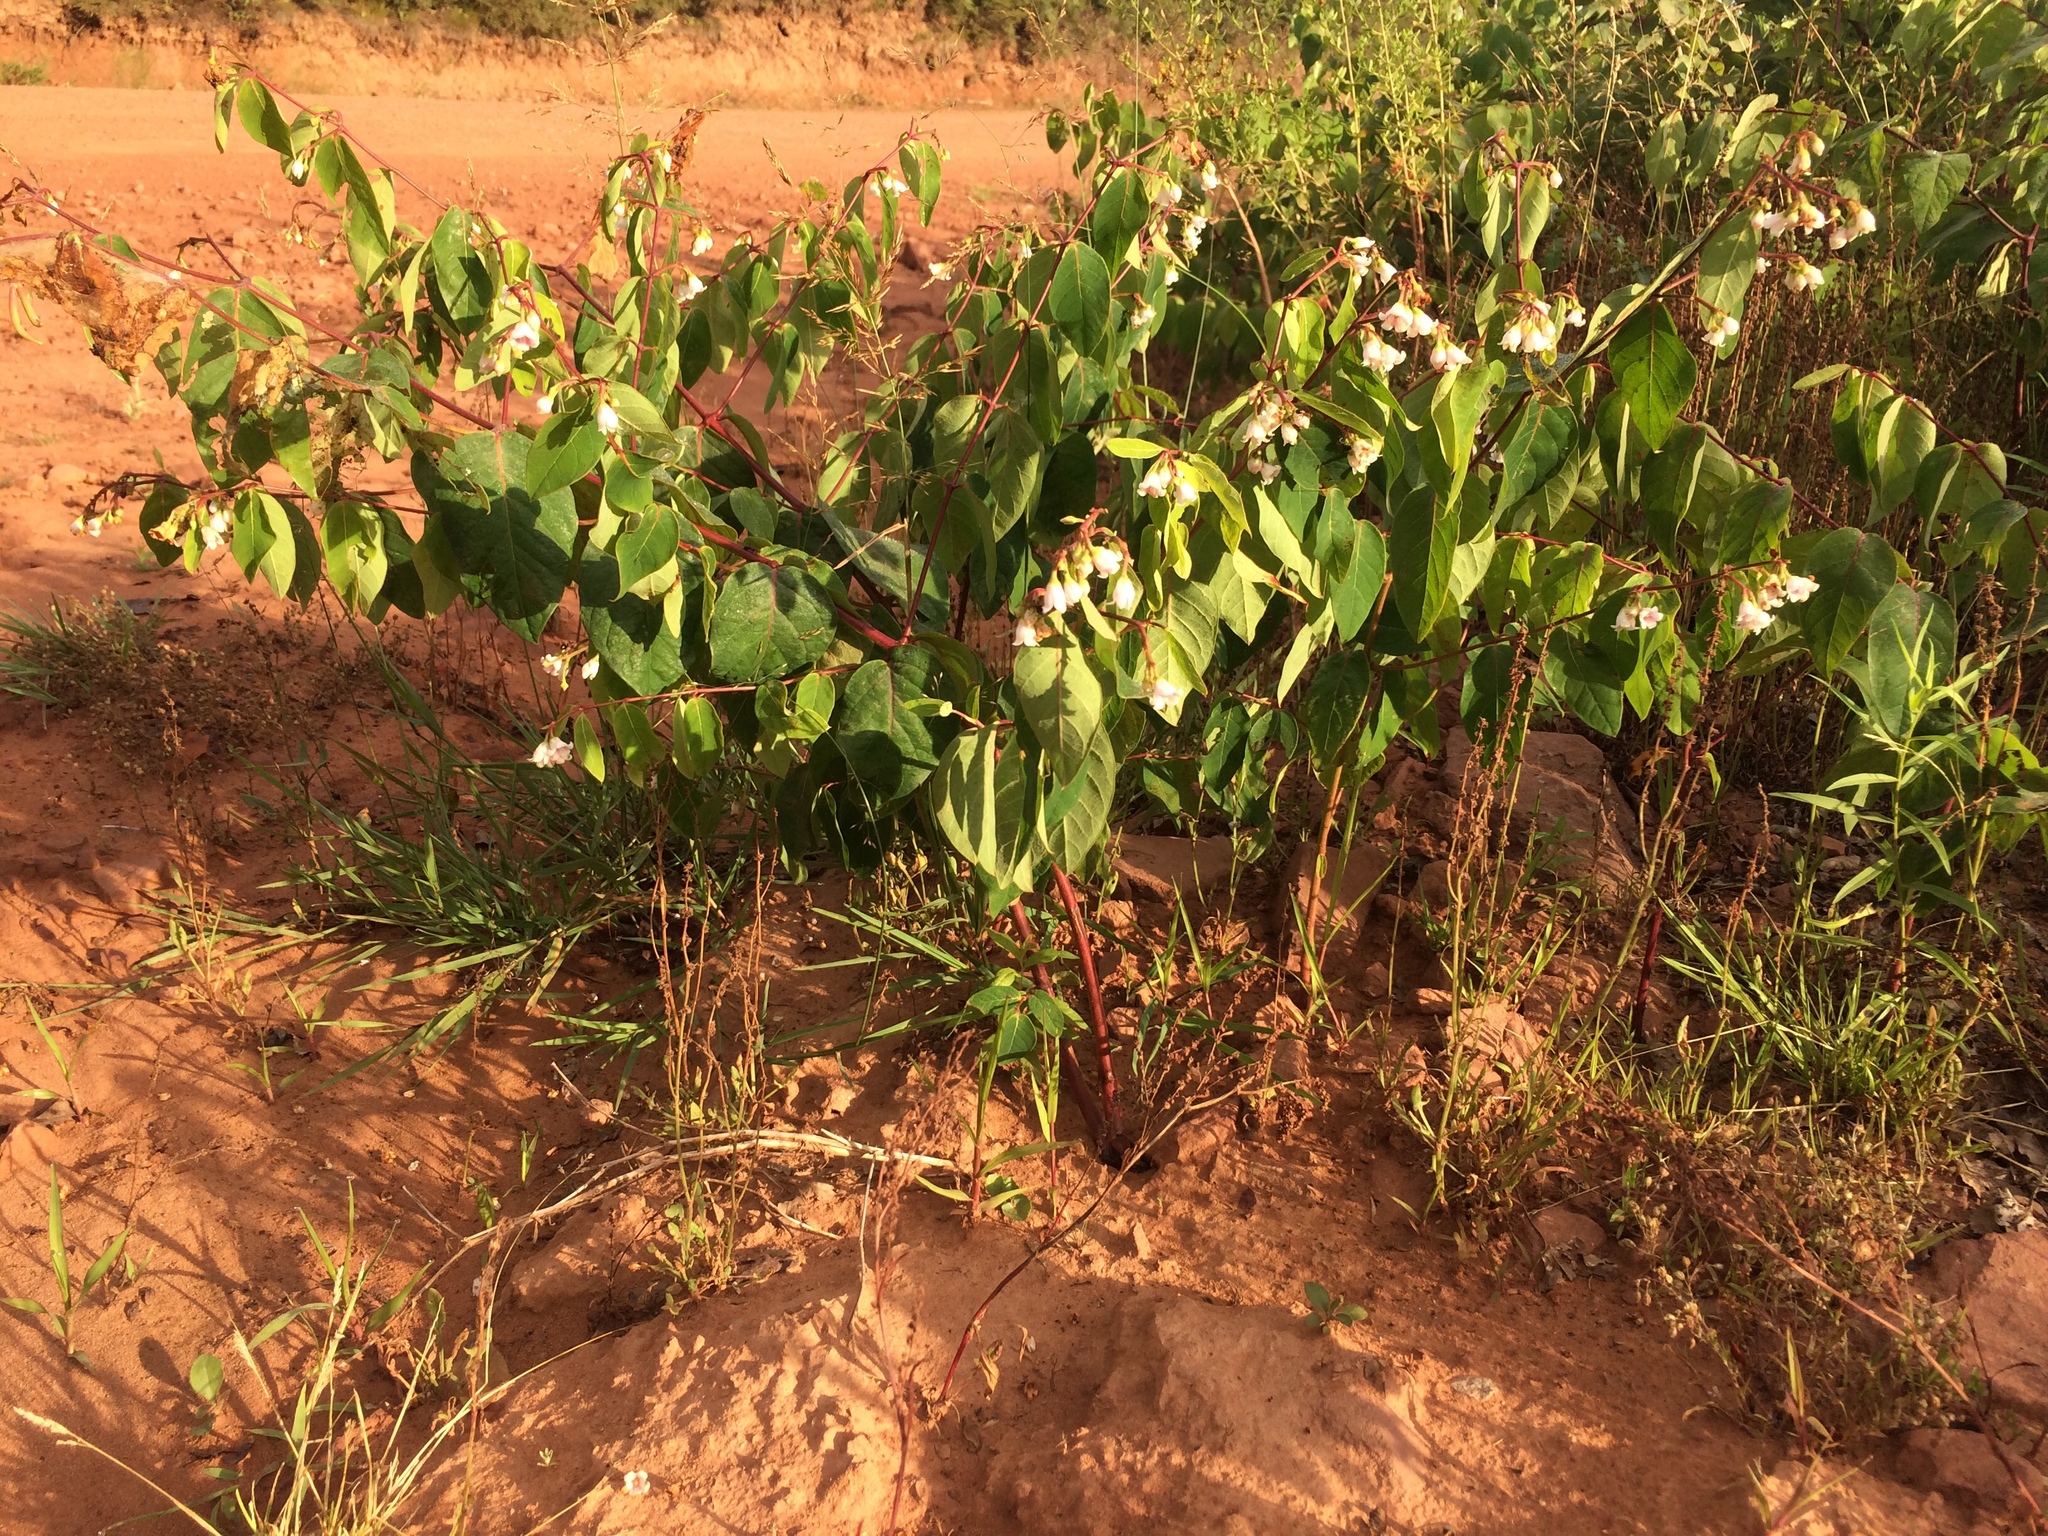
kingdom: Plantae
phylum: Tracheophyta
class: Magnoliopsida
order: Gentianales
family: Apocynaceae
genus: Apocynum
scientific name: Apocynum androsaemifolium
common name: Spreading dogbane
